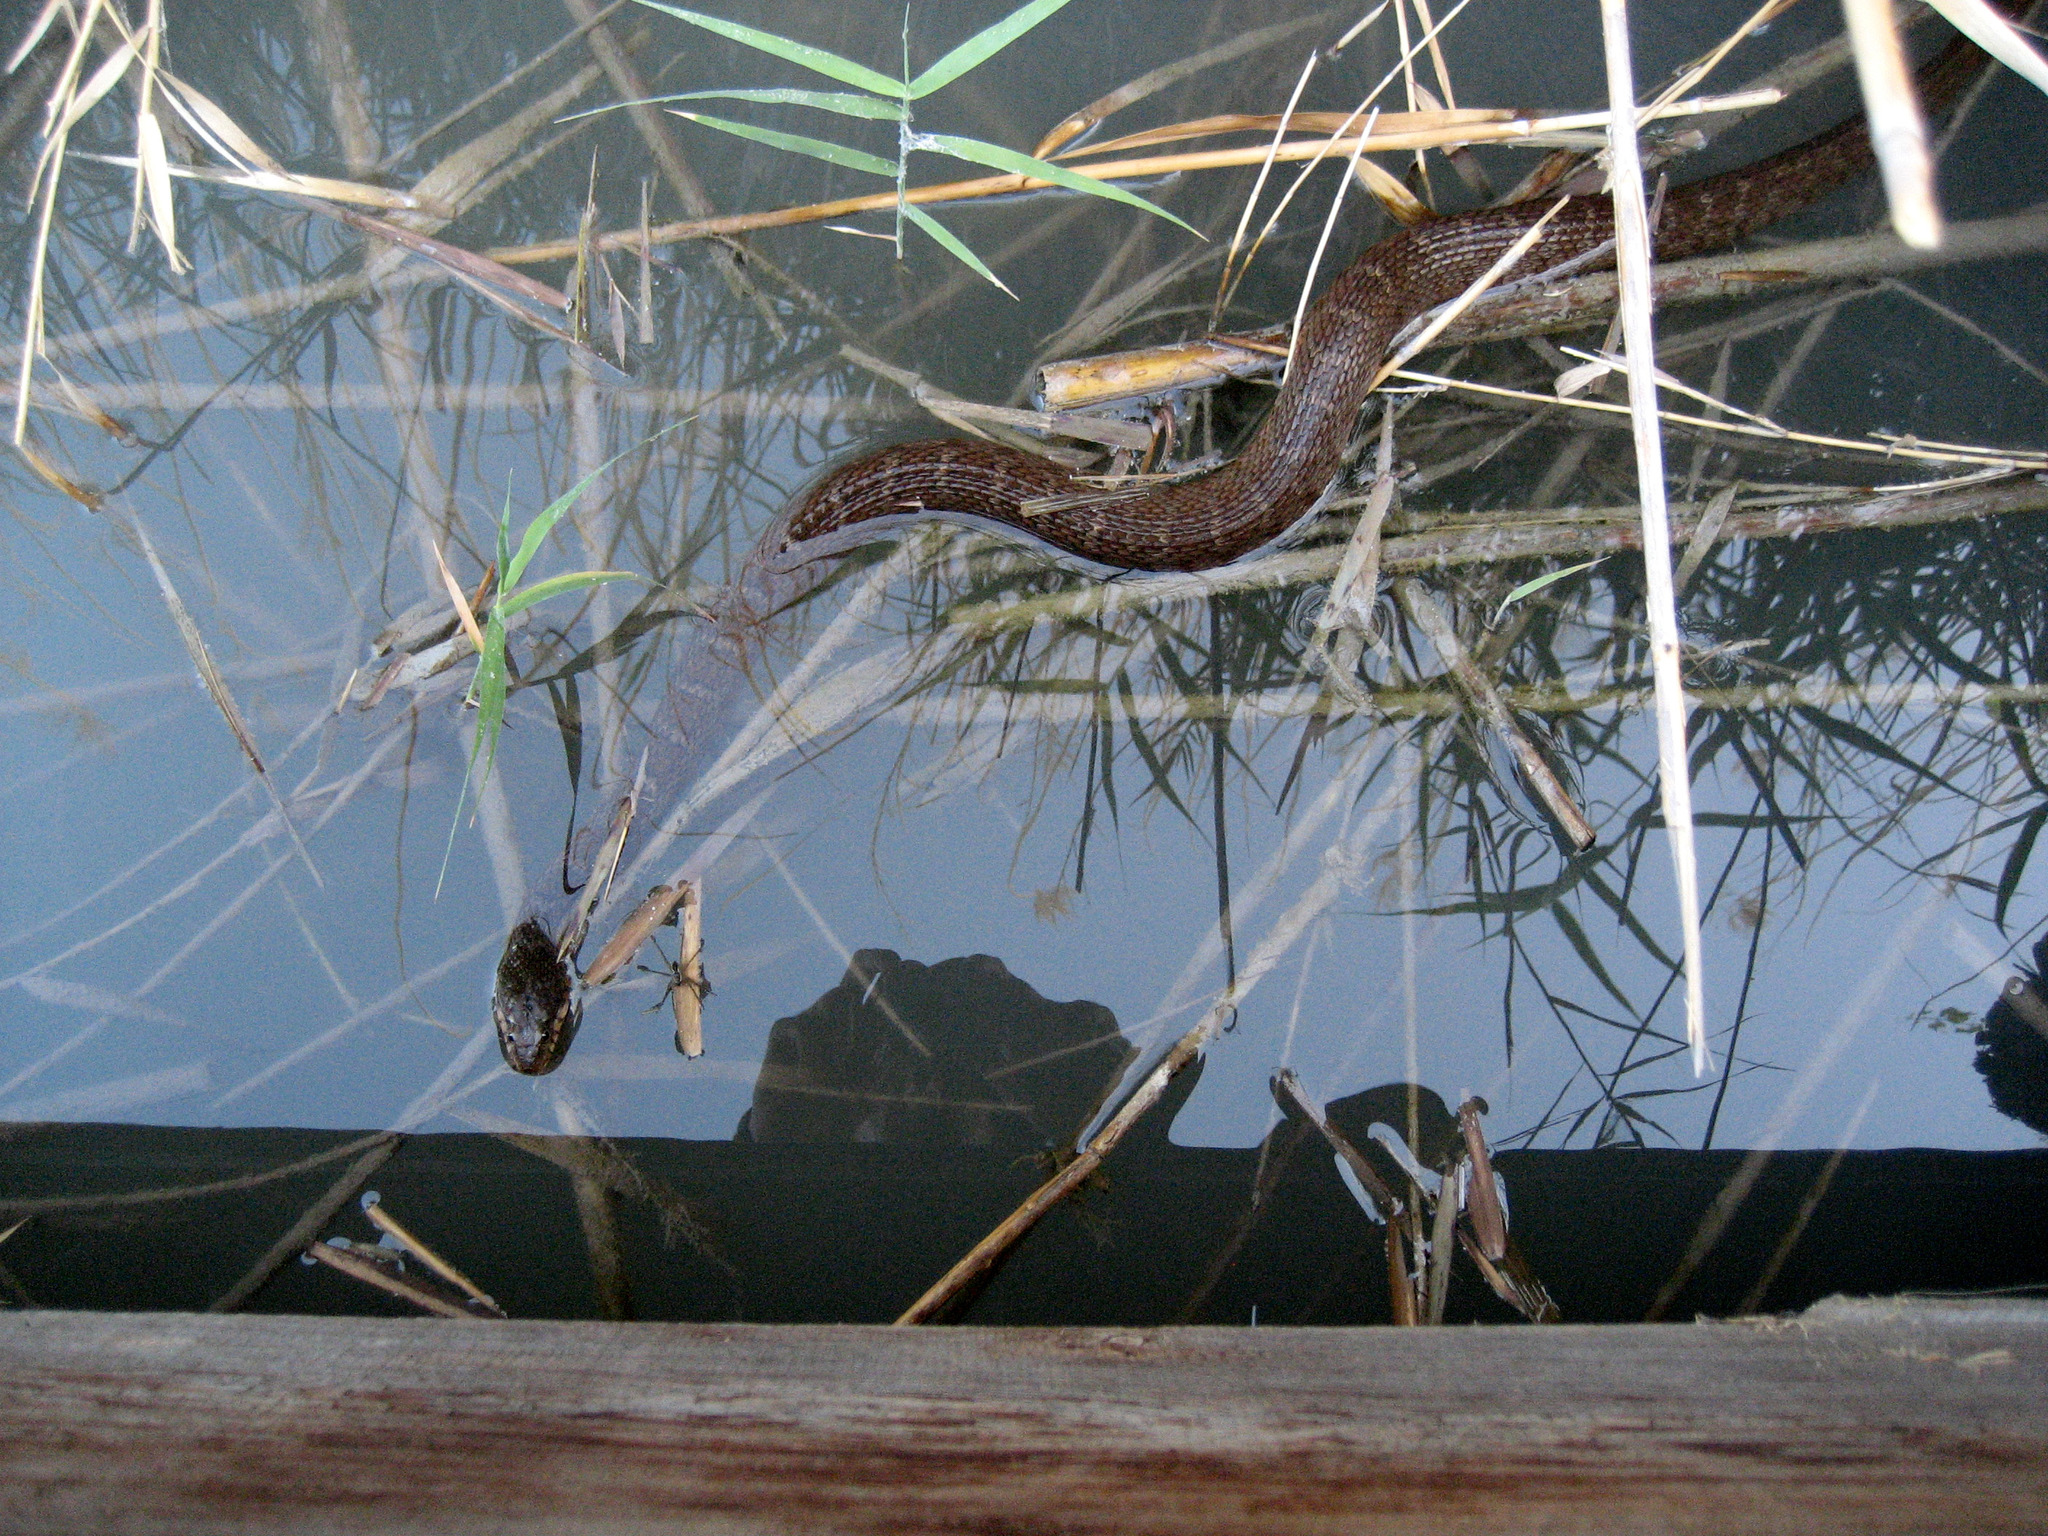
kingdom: Animalia
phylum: Chordata
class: Squamata
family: Colubridae
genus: Nerodia
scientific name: Nerodia erythrogaster
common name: Plainbelly water snake
